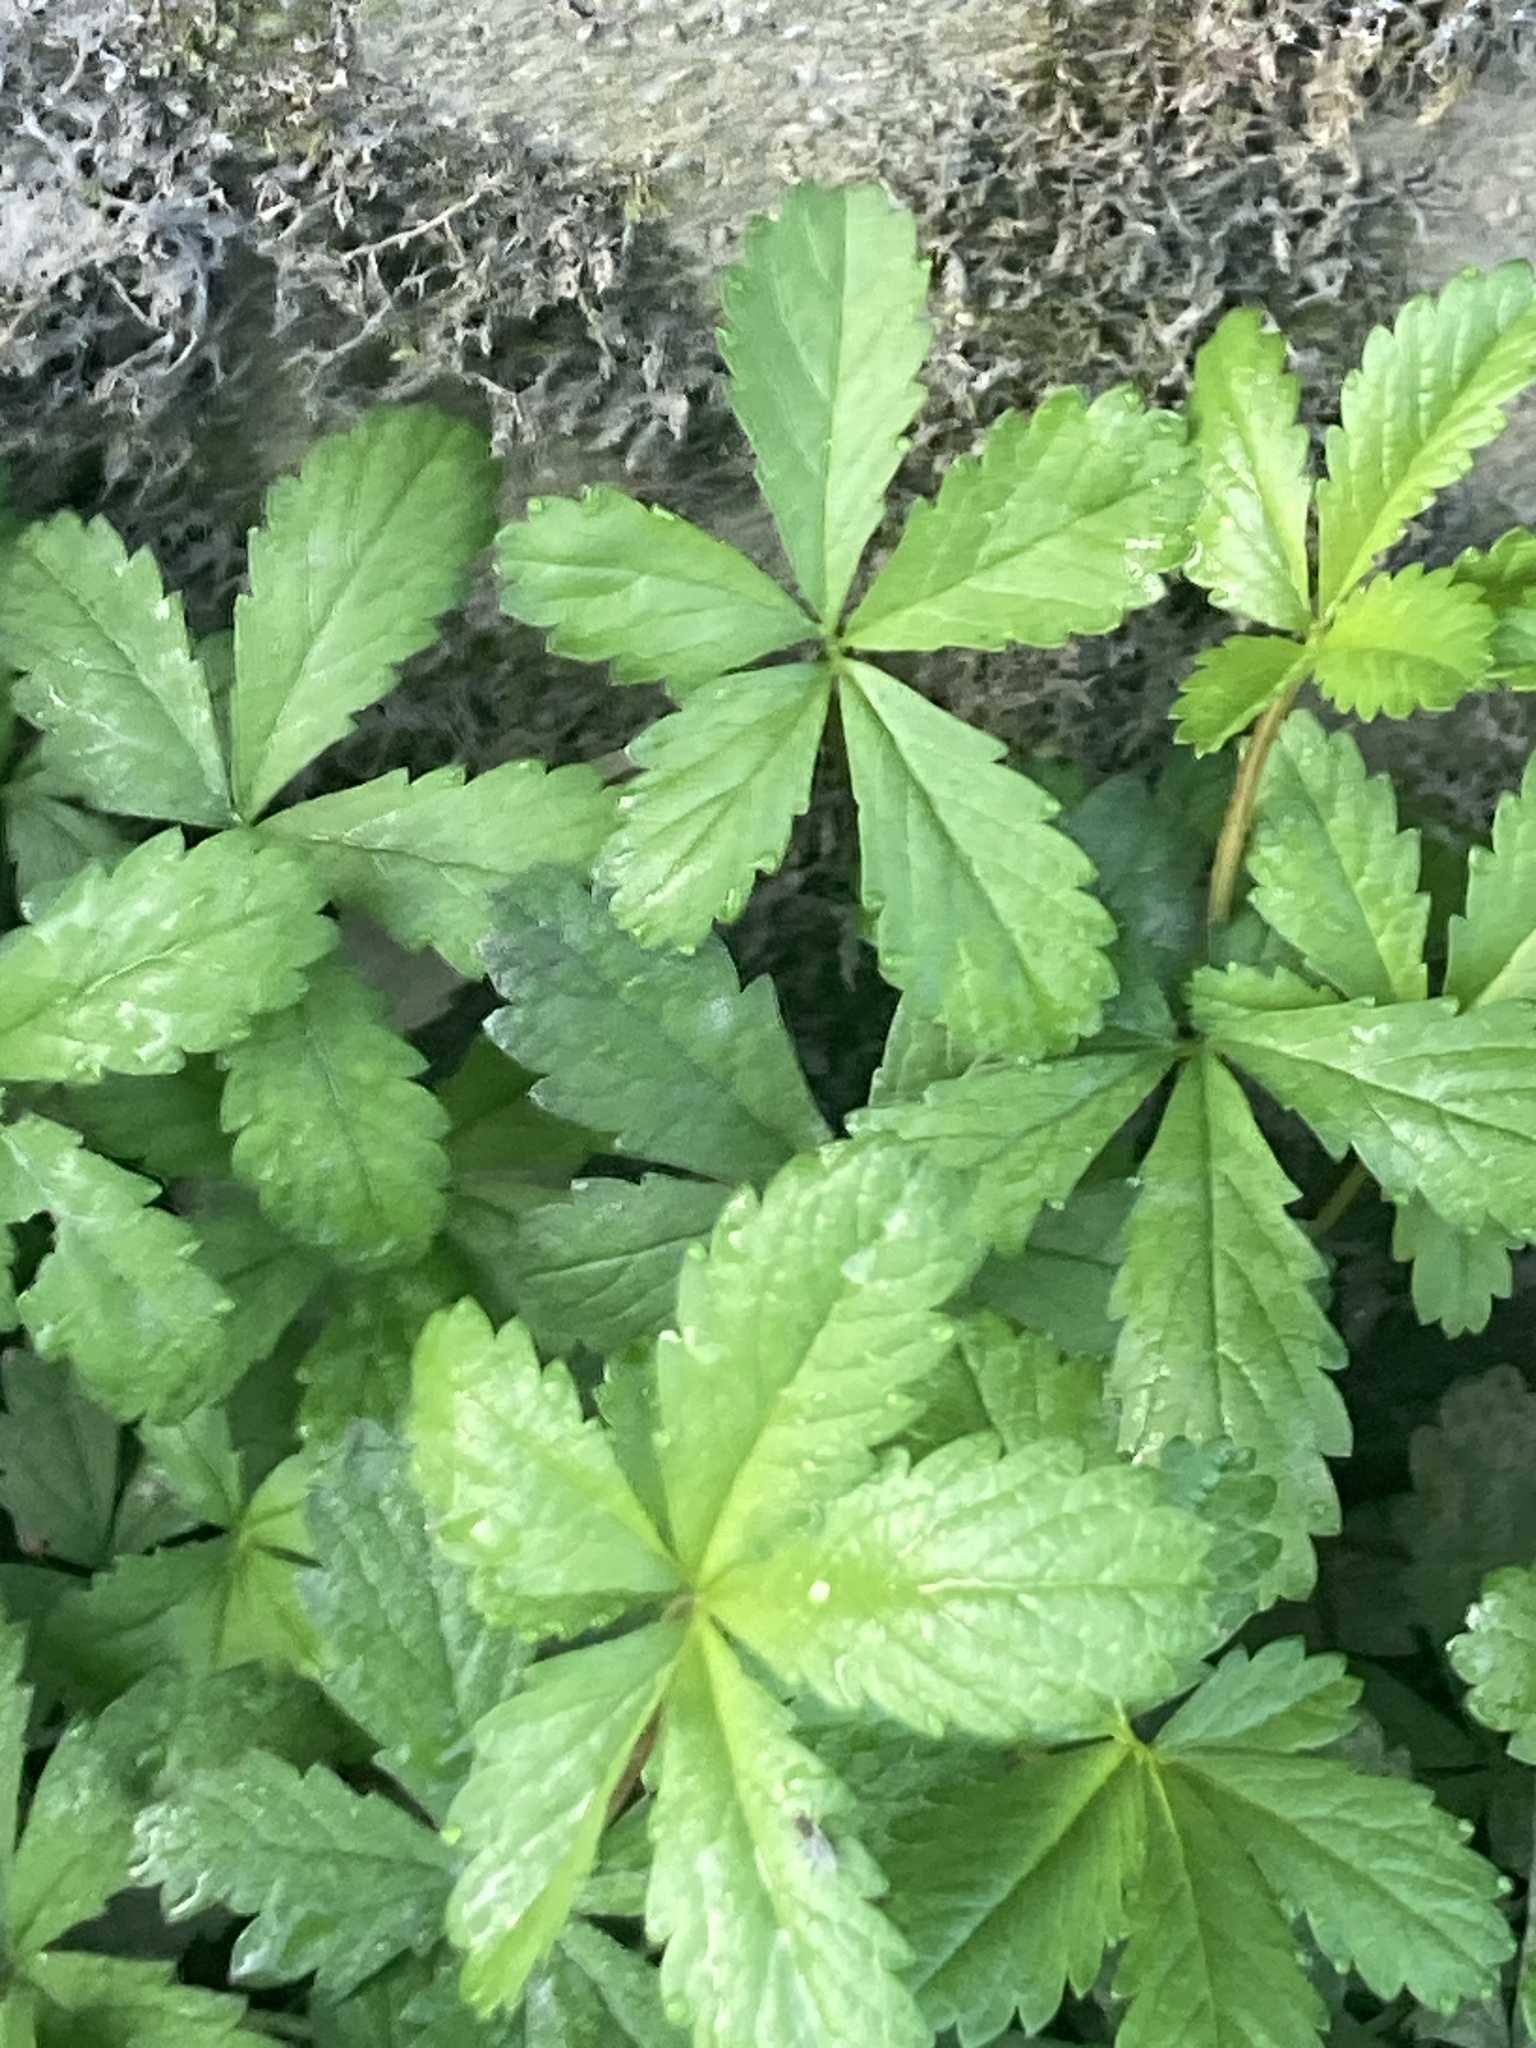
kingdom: Plantae
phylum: Tracheophyta
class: Magnoliopsida
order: Rosales
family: Rosaceae
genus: Potentilla
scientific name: Potentilla reptans
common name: Creeping cinquefoil
